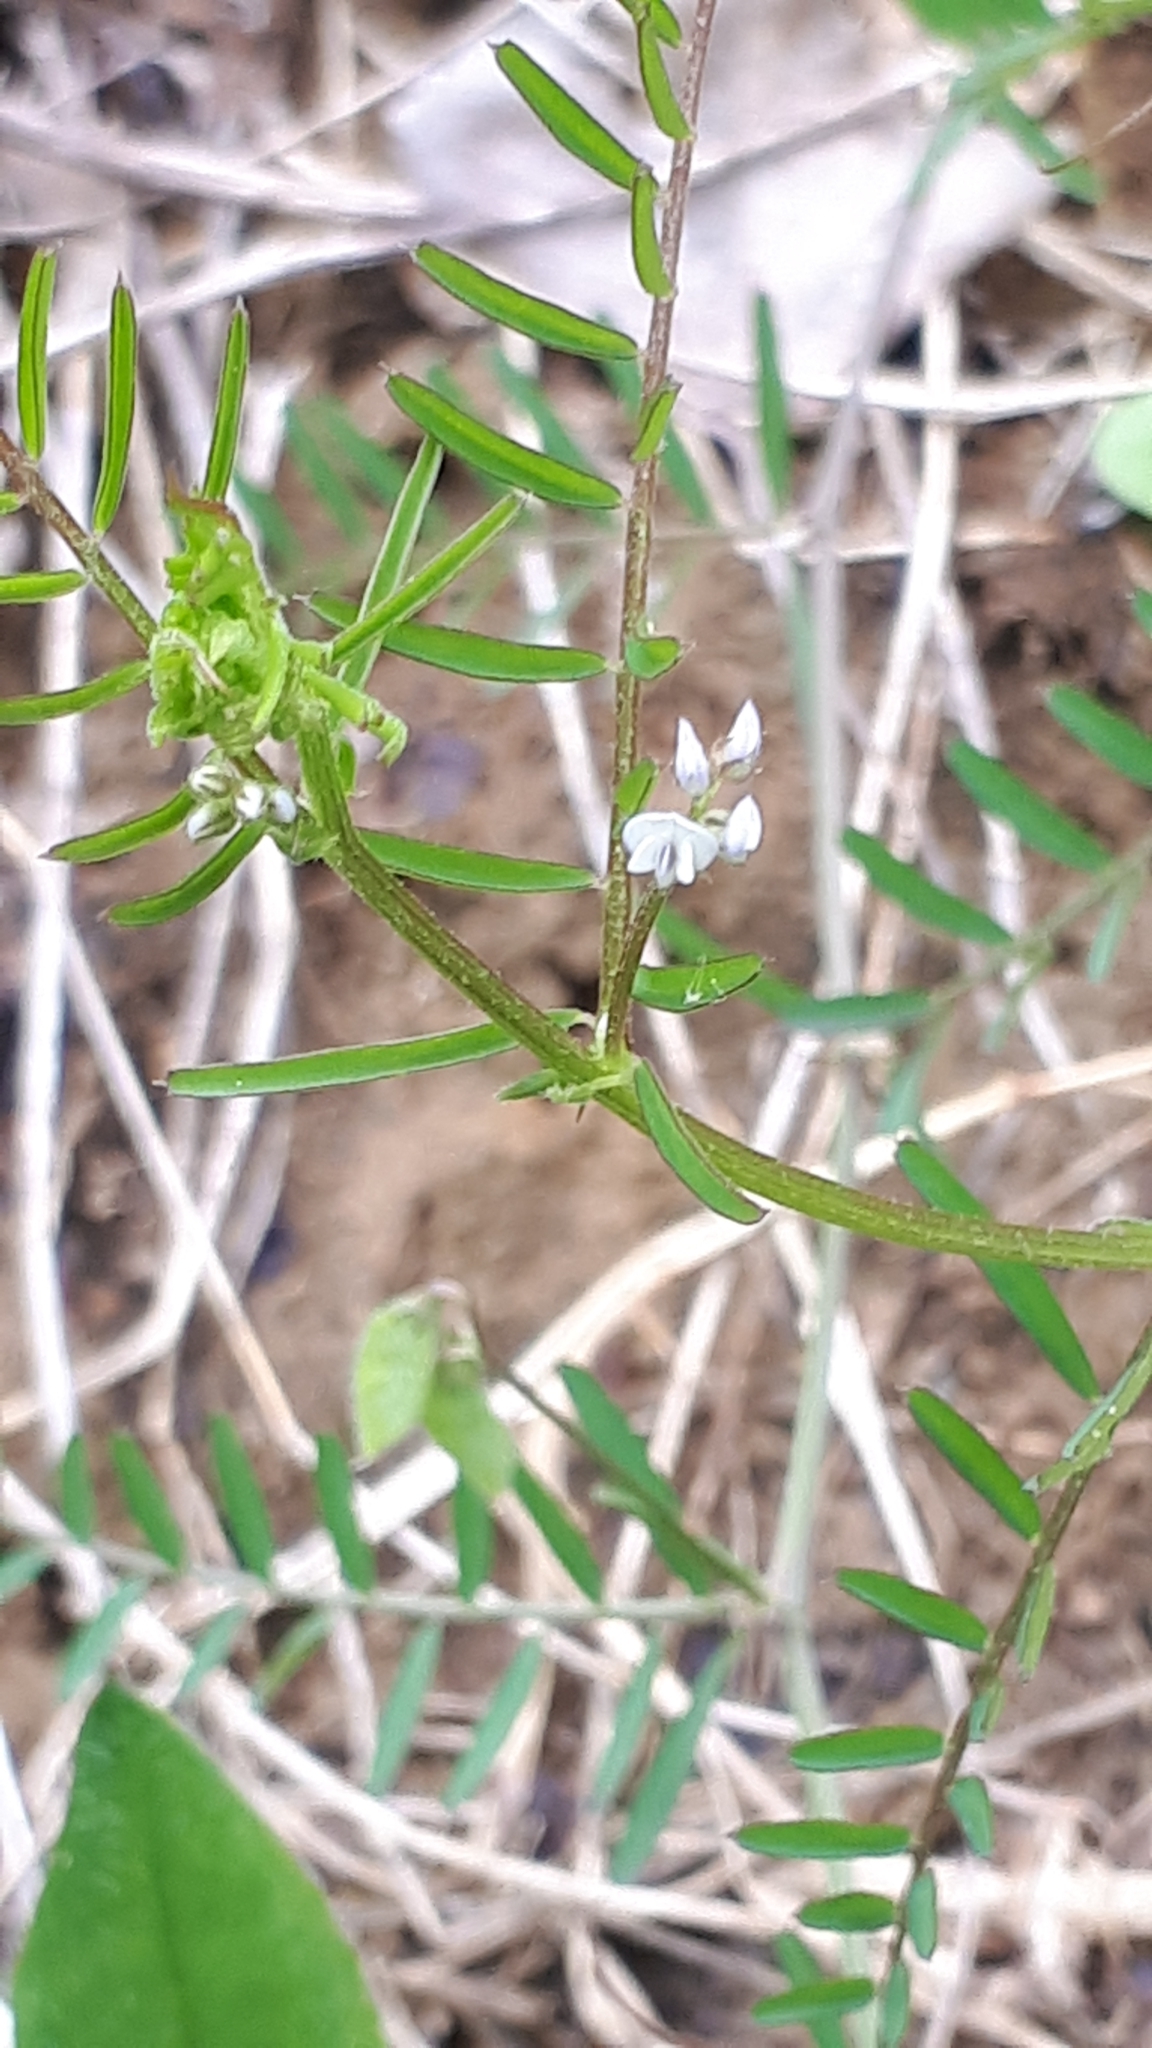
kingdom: Plantae
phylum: Tracheophyta
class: Magnoliopsida
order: Fabales
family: Fabaceae
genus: Vicia
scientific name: Vicia hirsuta
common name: Tiny vetch
